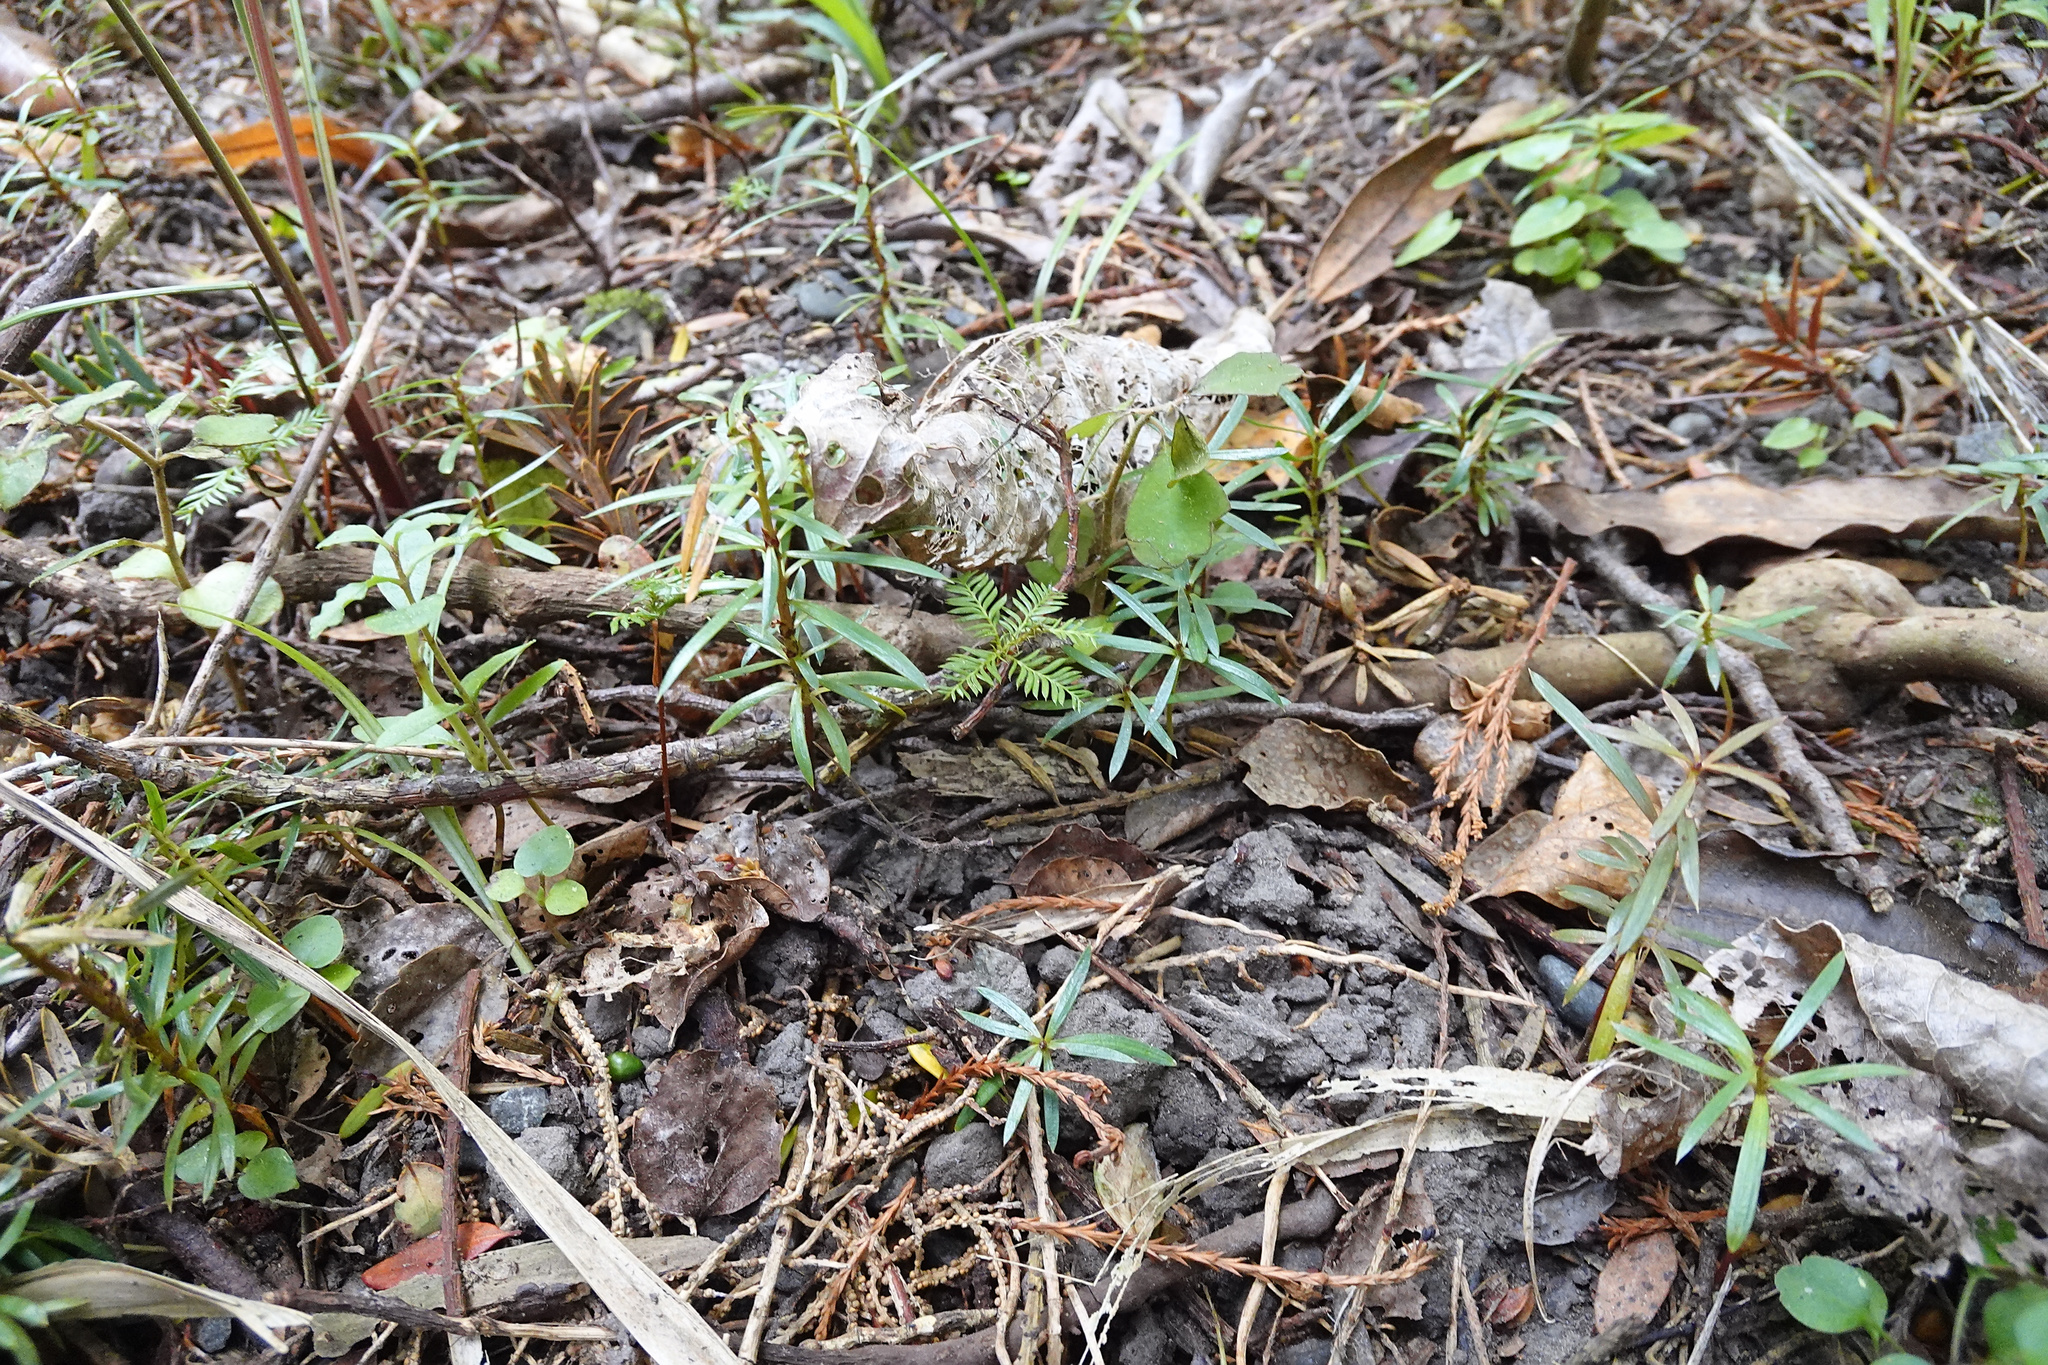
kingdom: Plantae
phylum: Tracheophyta
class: Magnoliopsida
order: Apiales
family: Pennantiaceae
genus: Pennantia
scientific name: Pennantia corymbosa
